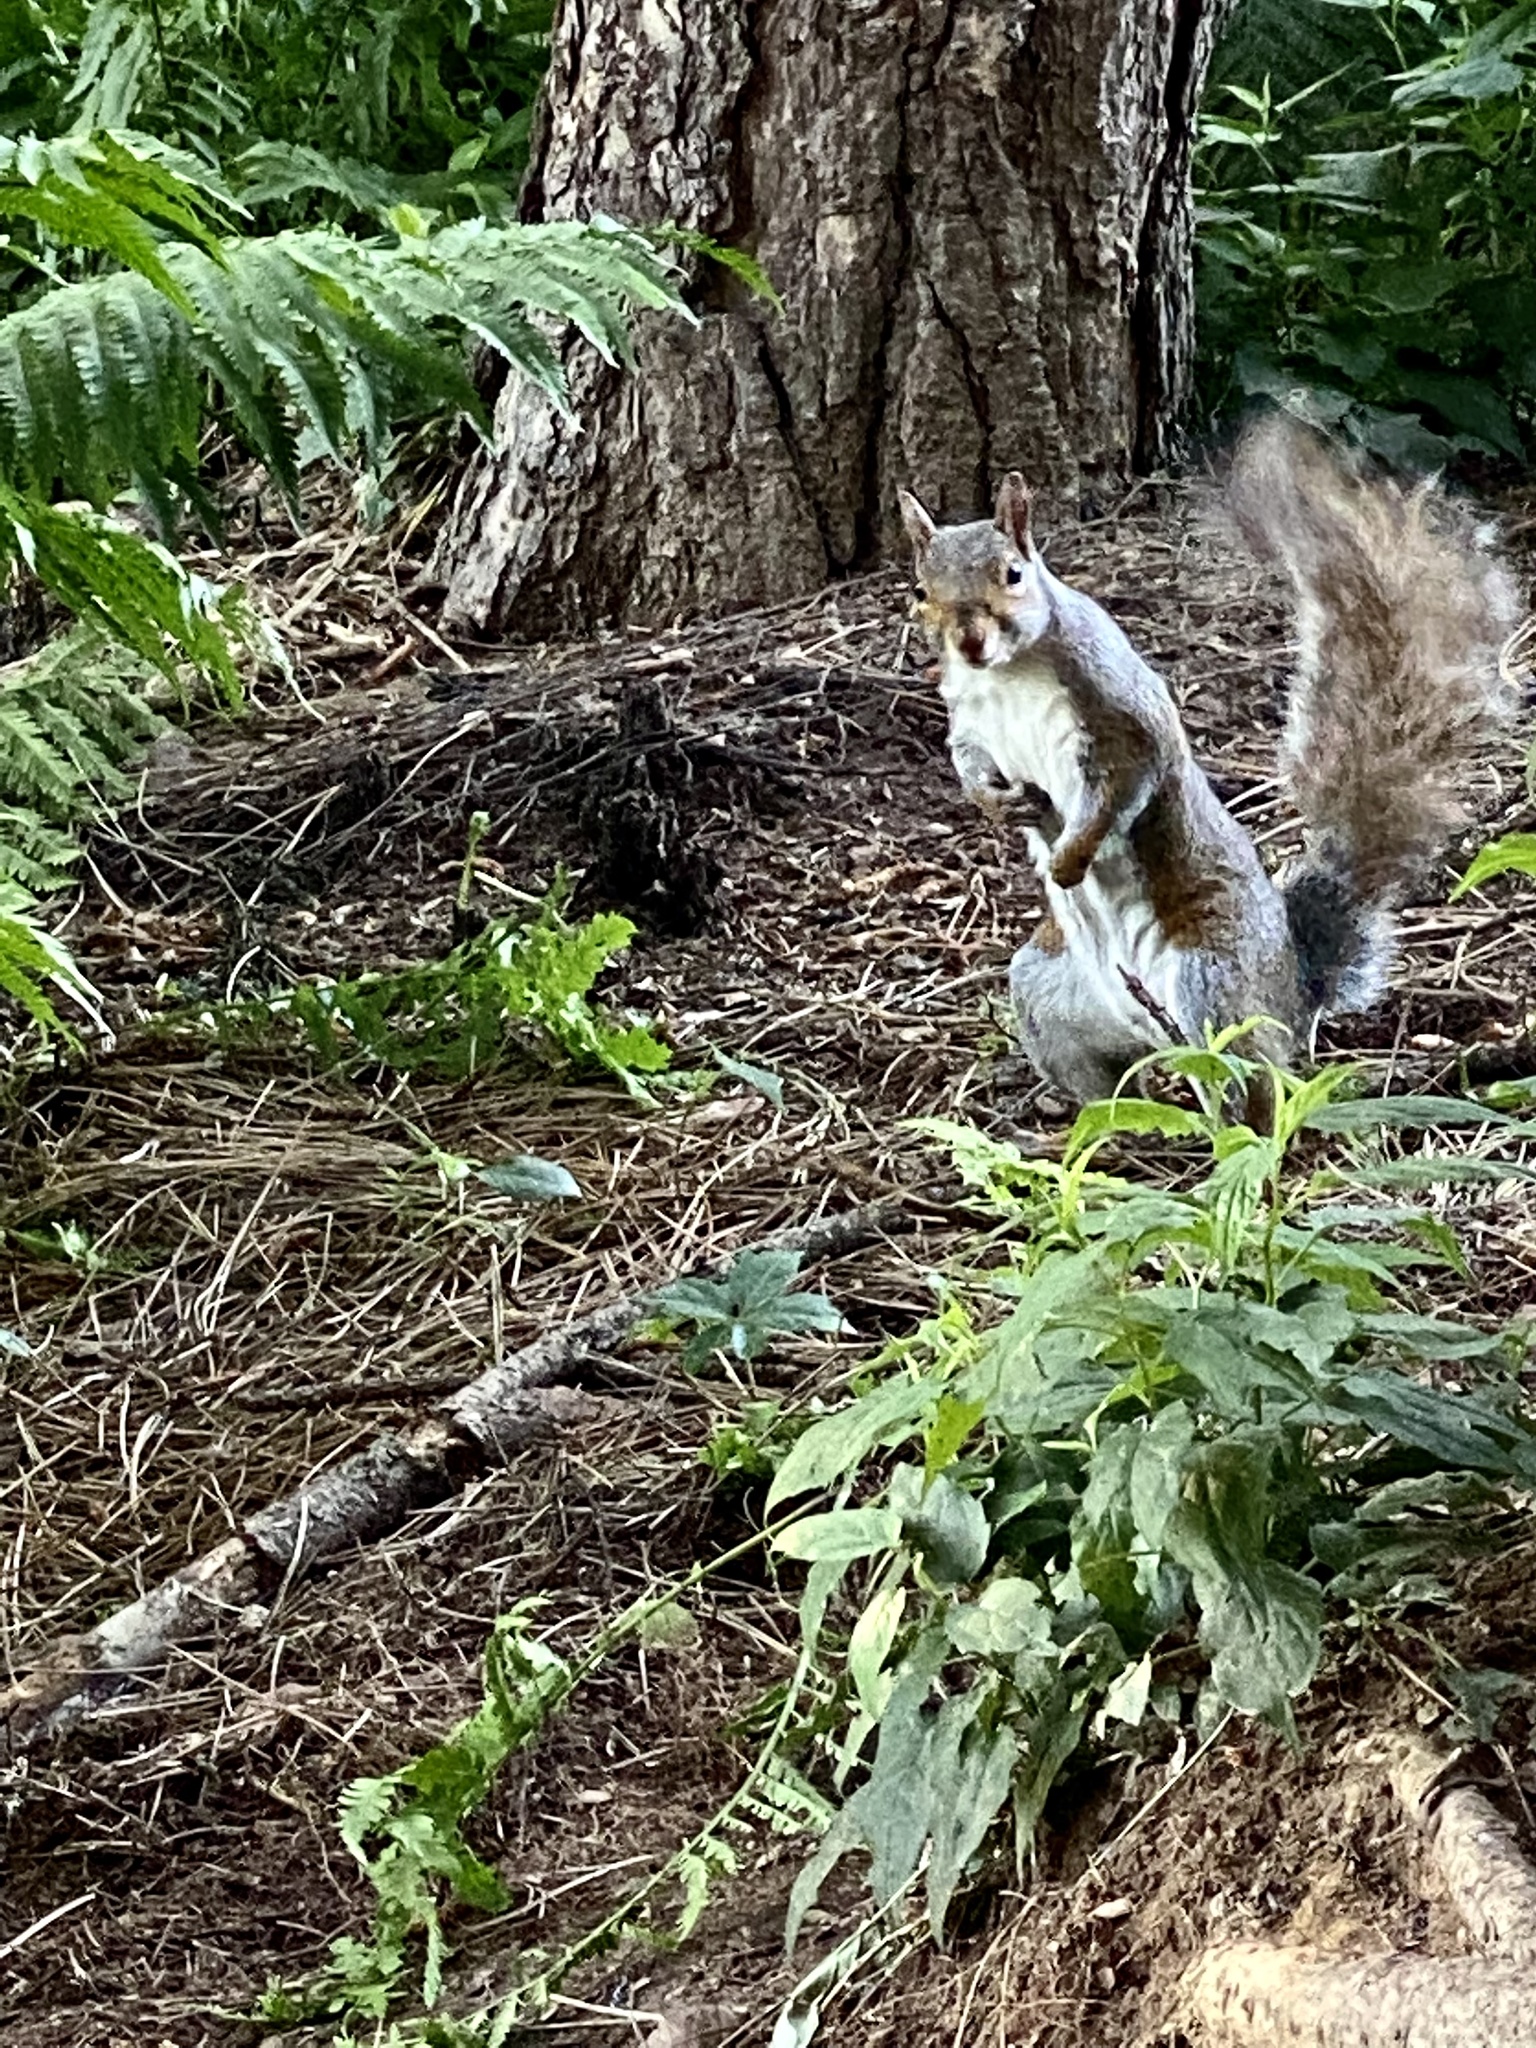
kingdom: Animalia
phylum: Chordata
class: Mammalia
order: Rodentia
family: Sciuridae
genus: Sciurus
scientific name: Sciurus carolinensis
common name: Eastern gray squirrel
